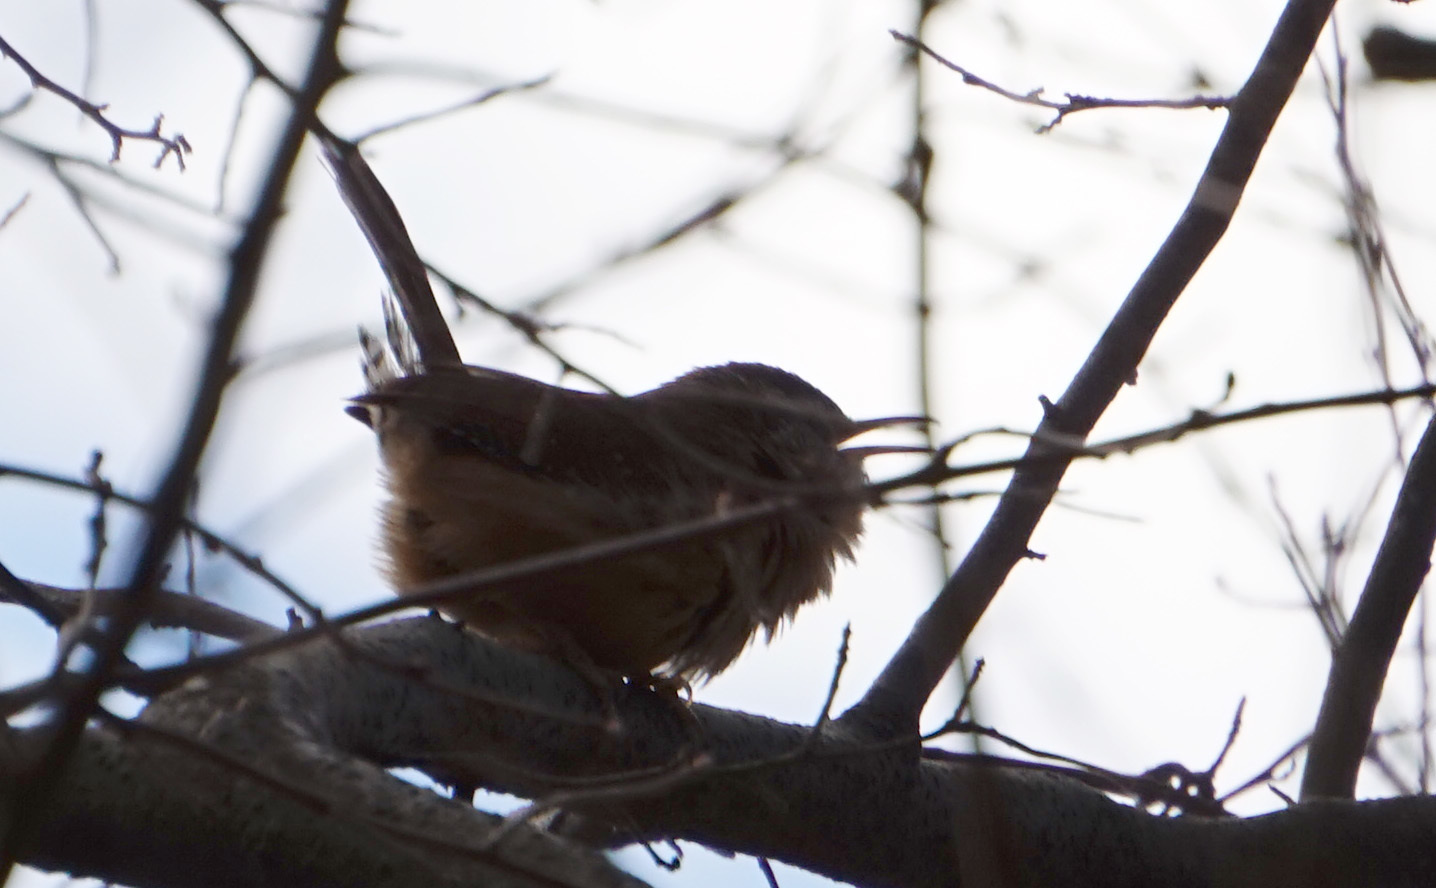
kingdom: Animalia
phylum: Chordata
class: Aves
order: Passeriformes
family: Troglodytidae
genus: Thryothorus
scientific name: Thryothorus ludovicianus
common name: Carolina wren
